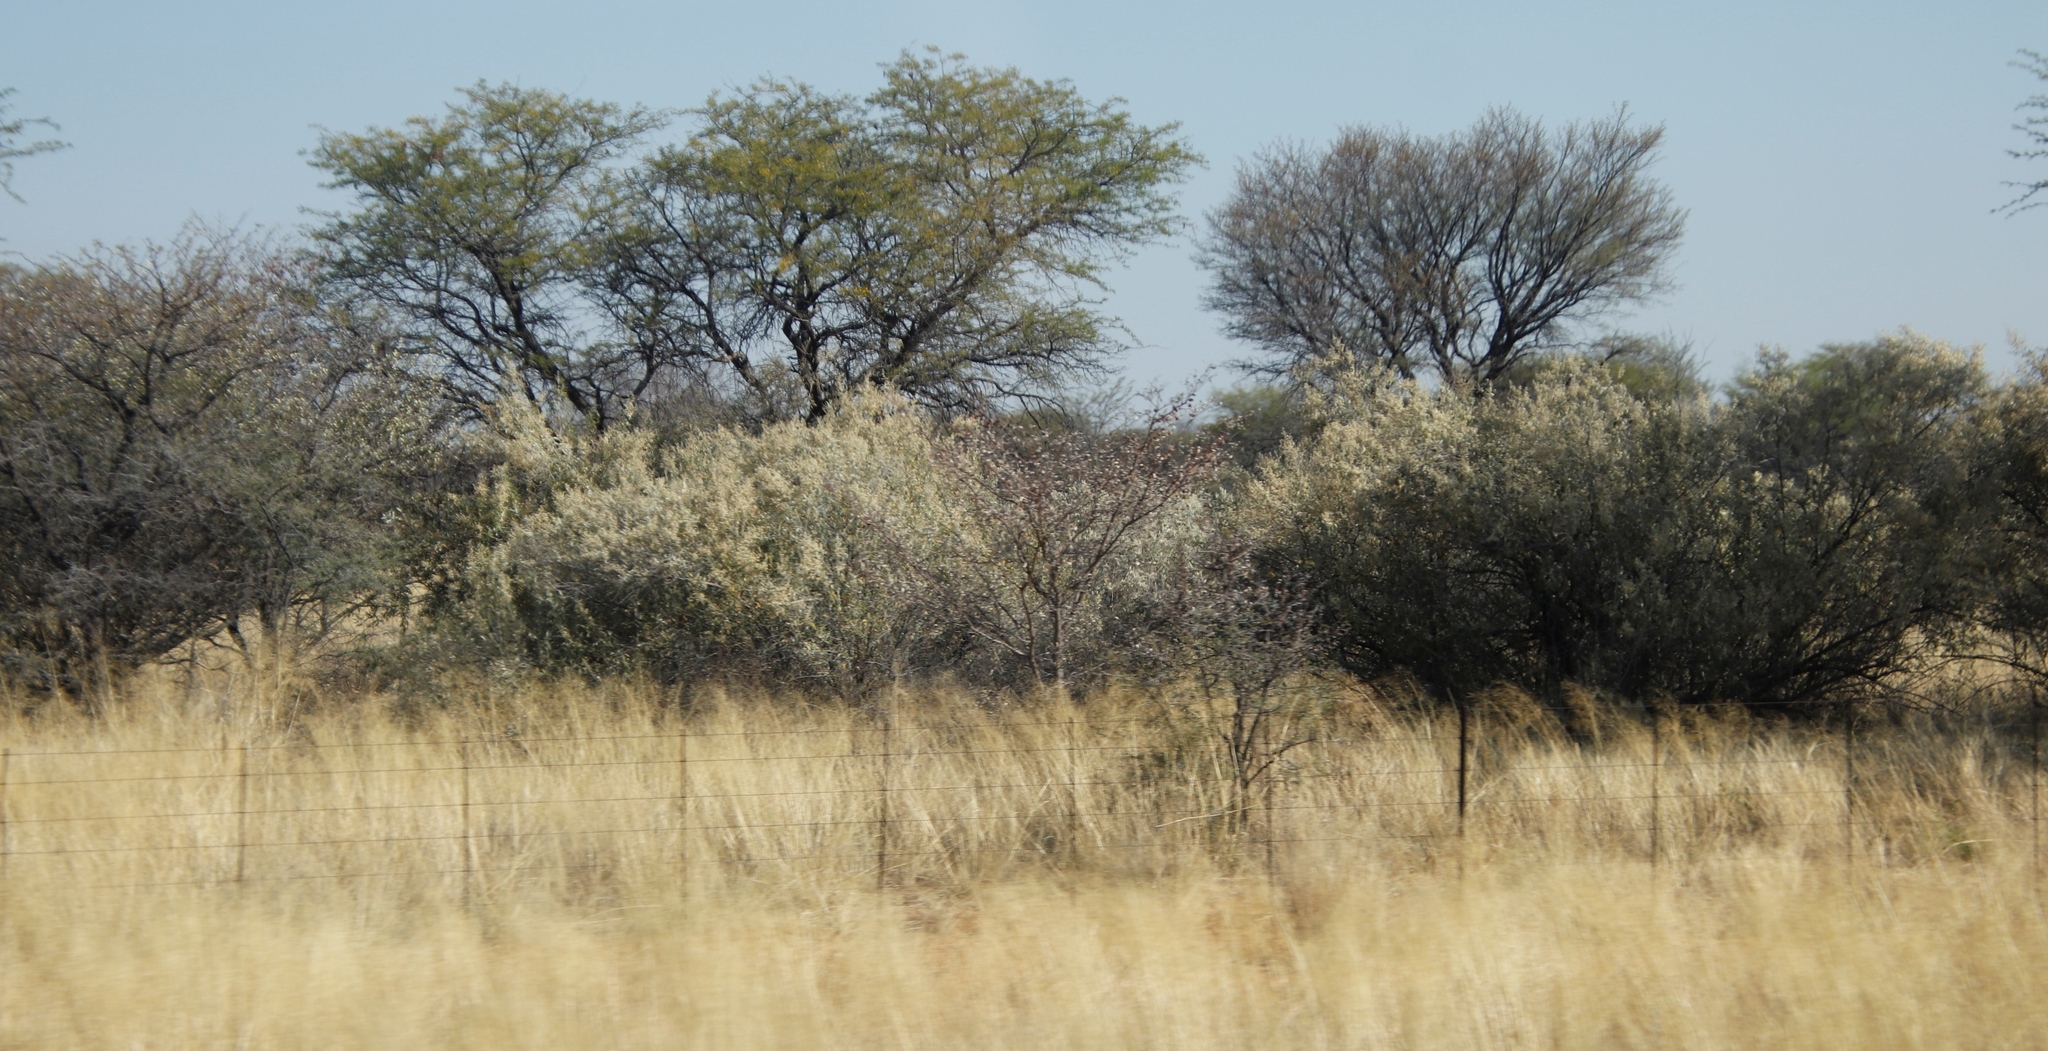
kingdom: Plantae
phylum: Tracheophyta
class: Magnoliopsida
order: Asterales
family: Asteraceae
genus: Tarchonanthus
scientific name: Tarchonanthus camphoratus
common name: Camphorwood
